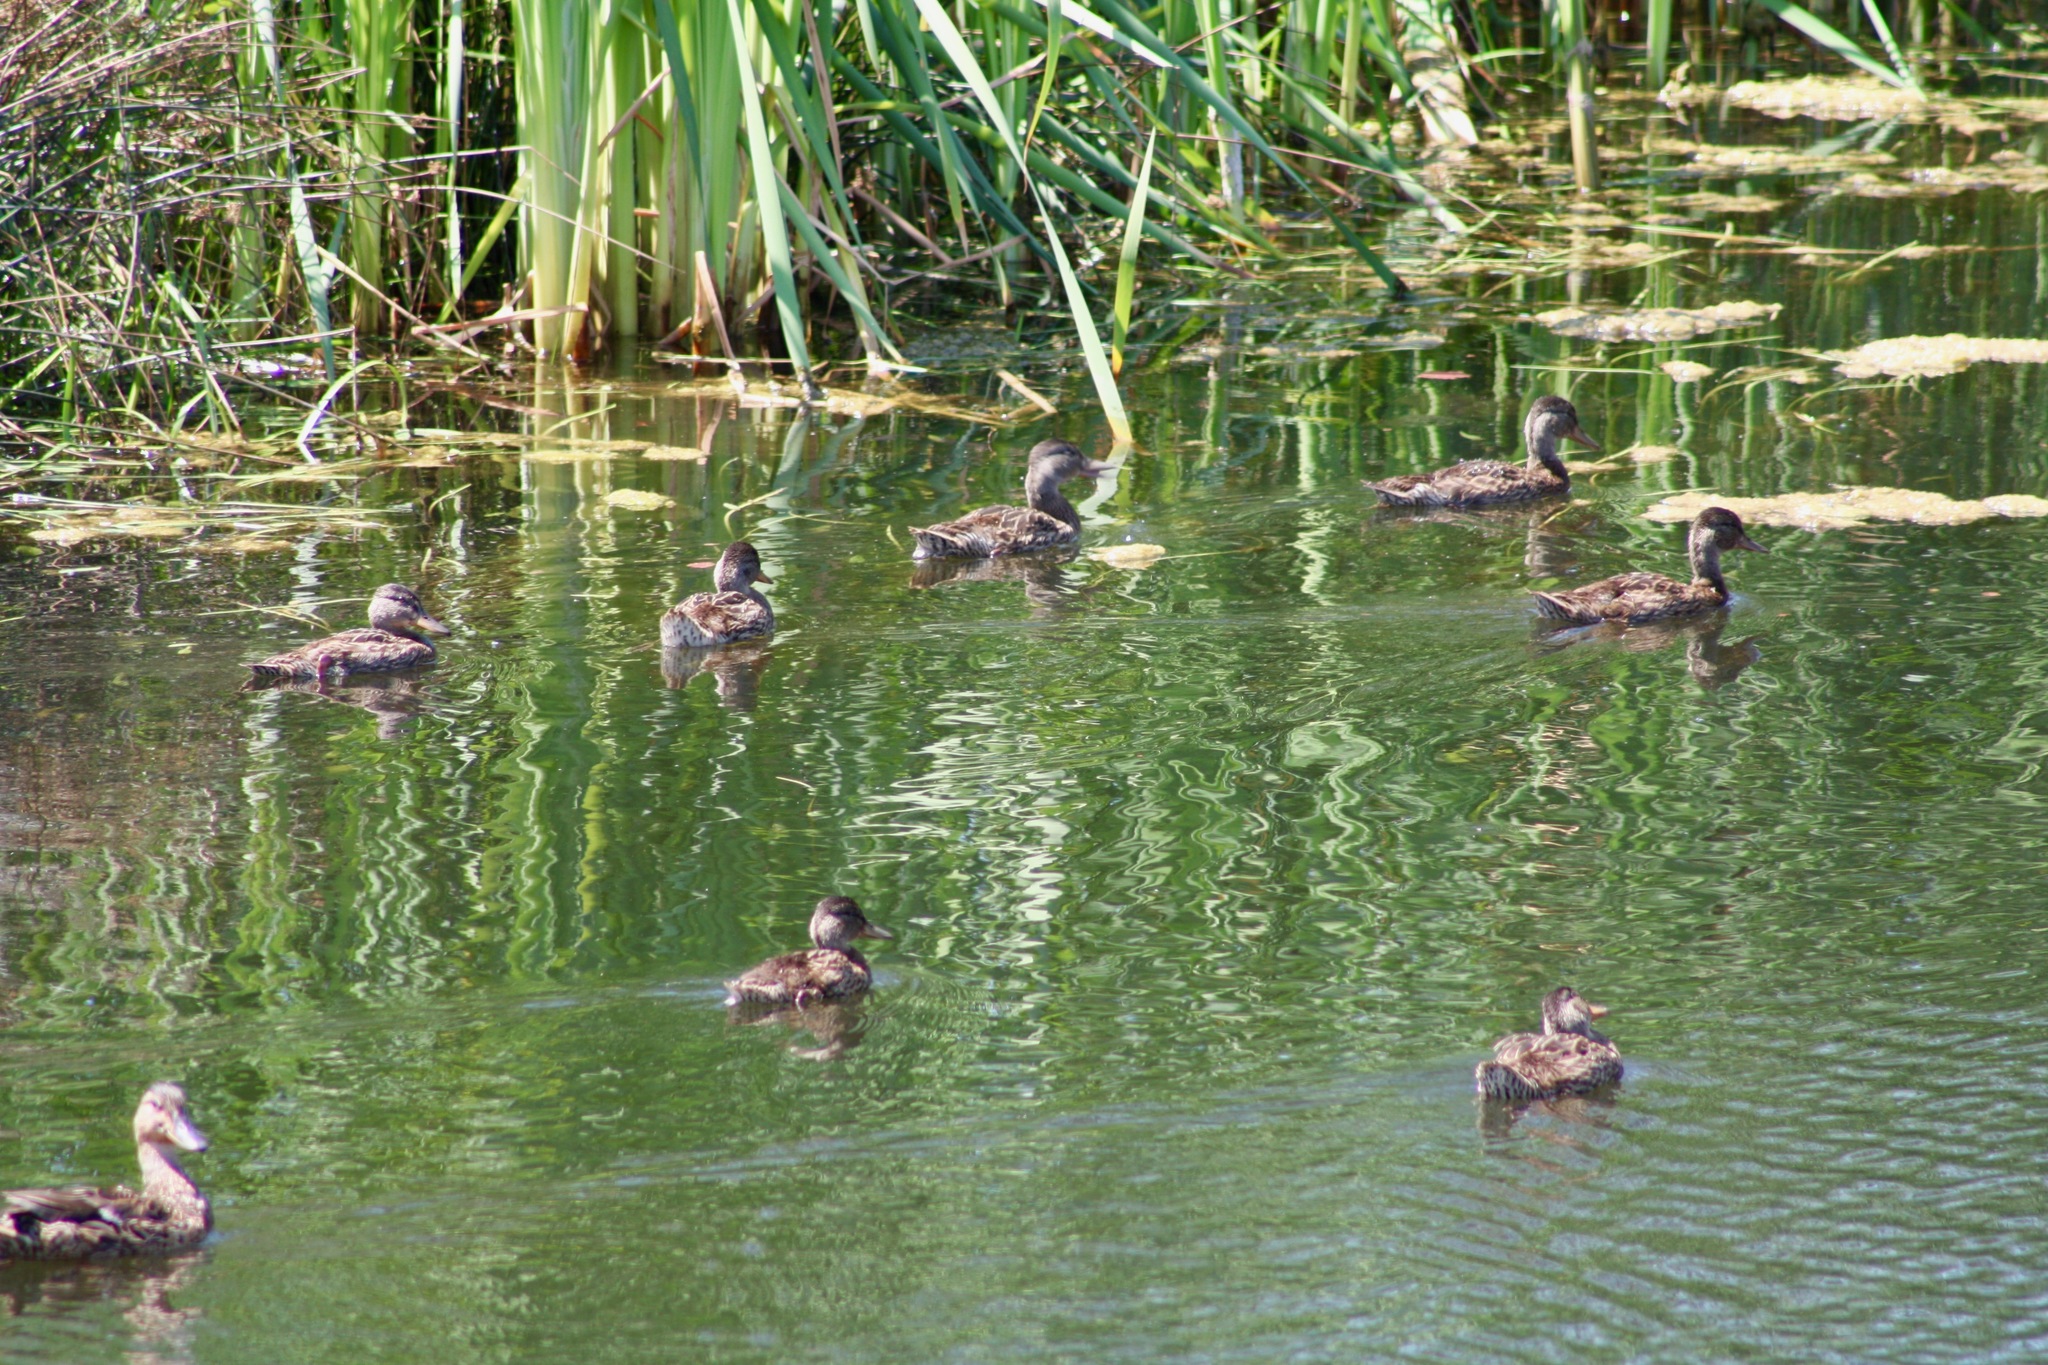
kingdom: Animalia
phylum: Chordata
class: Aves
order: Anseriformes
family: Anatidae
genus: Anas
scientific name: Anas platyrhynchos
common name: Mallard
